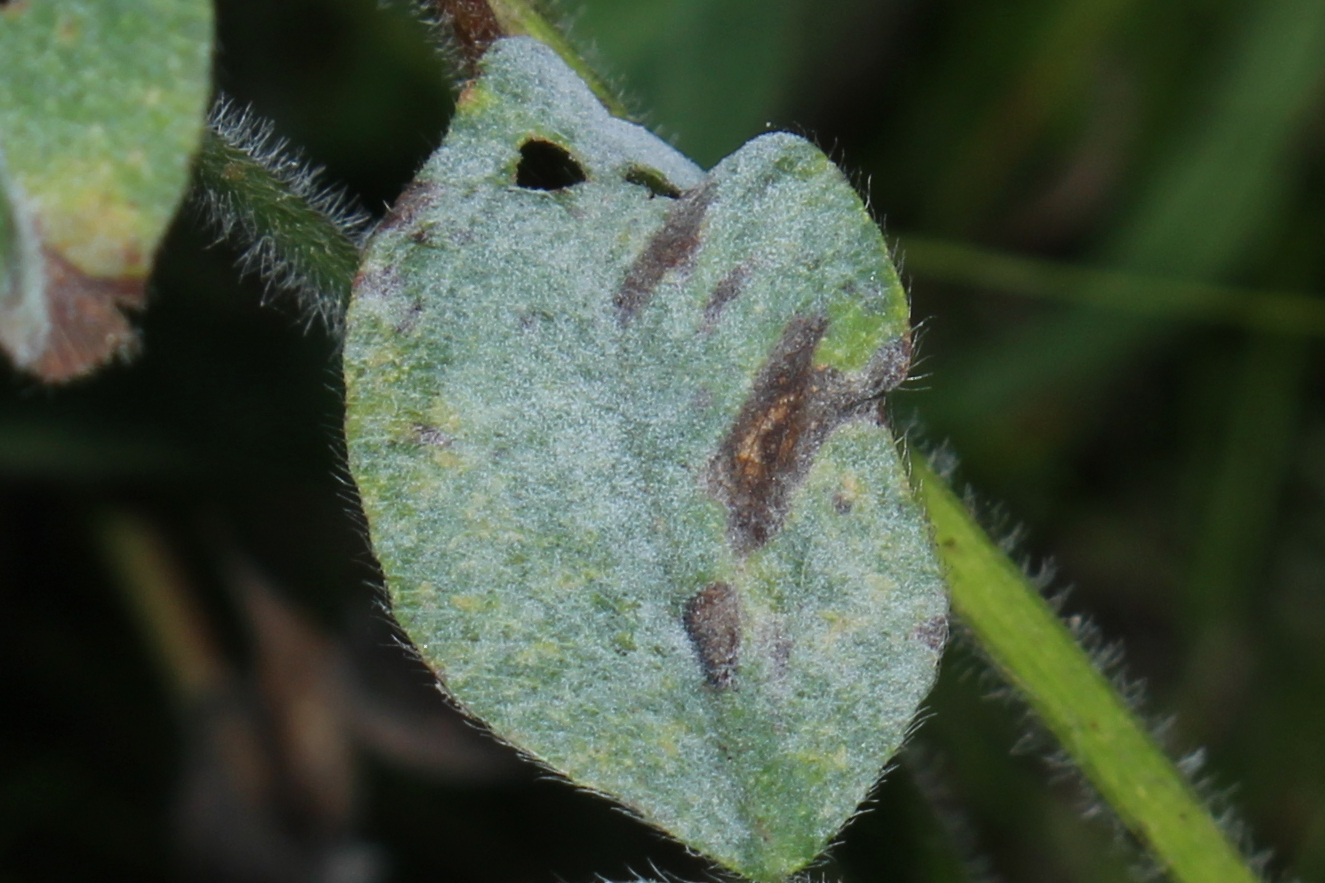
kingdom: Fungi
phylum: Ascomycota
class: Leotiomycetes
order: Helotiales
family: Erysiphaceae
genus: Erysiphe
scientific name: Erysiphe
